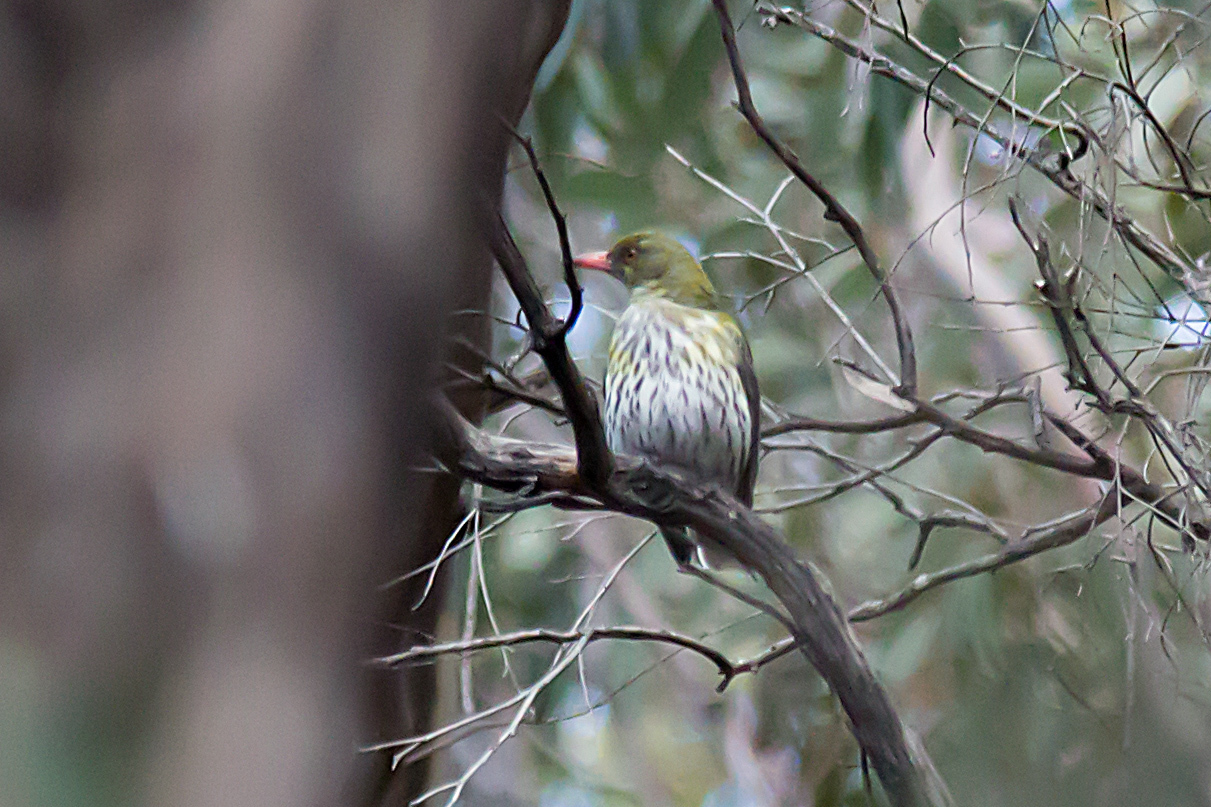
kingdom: Animalia
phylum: Chordata
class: Aves
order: Passeriformes
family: Oriolidae
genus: Oriolus
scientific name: Oriolus sagittatus
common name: Olive-backed oriole
